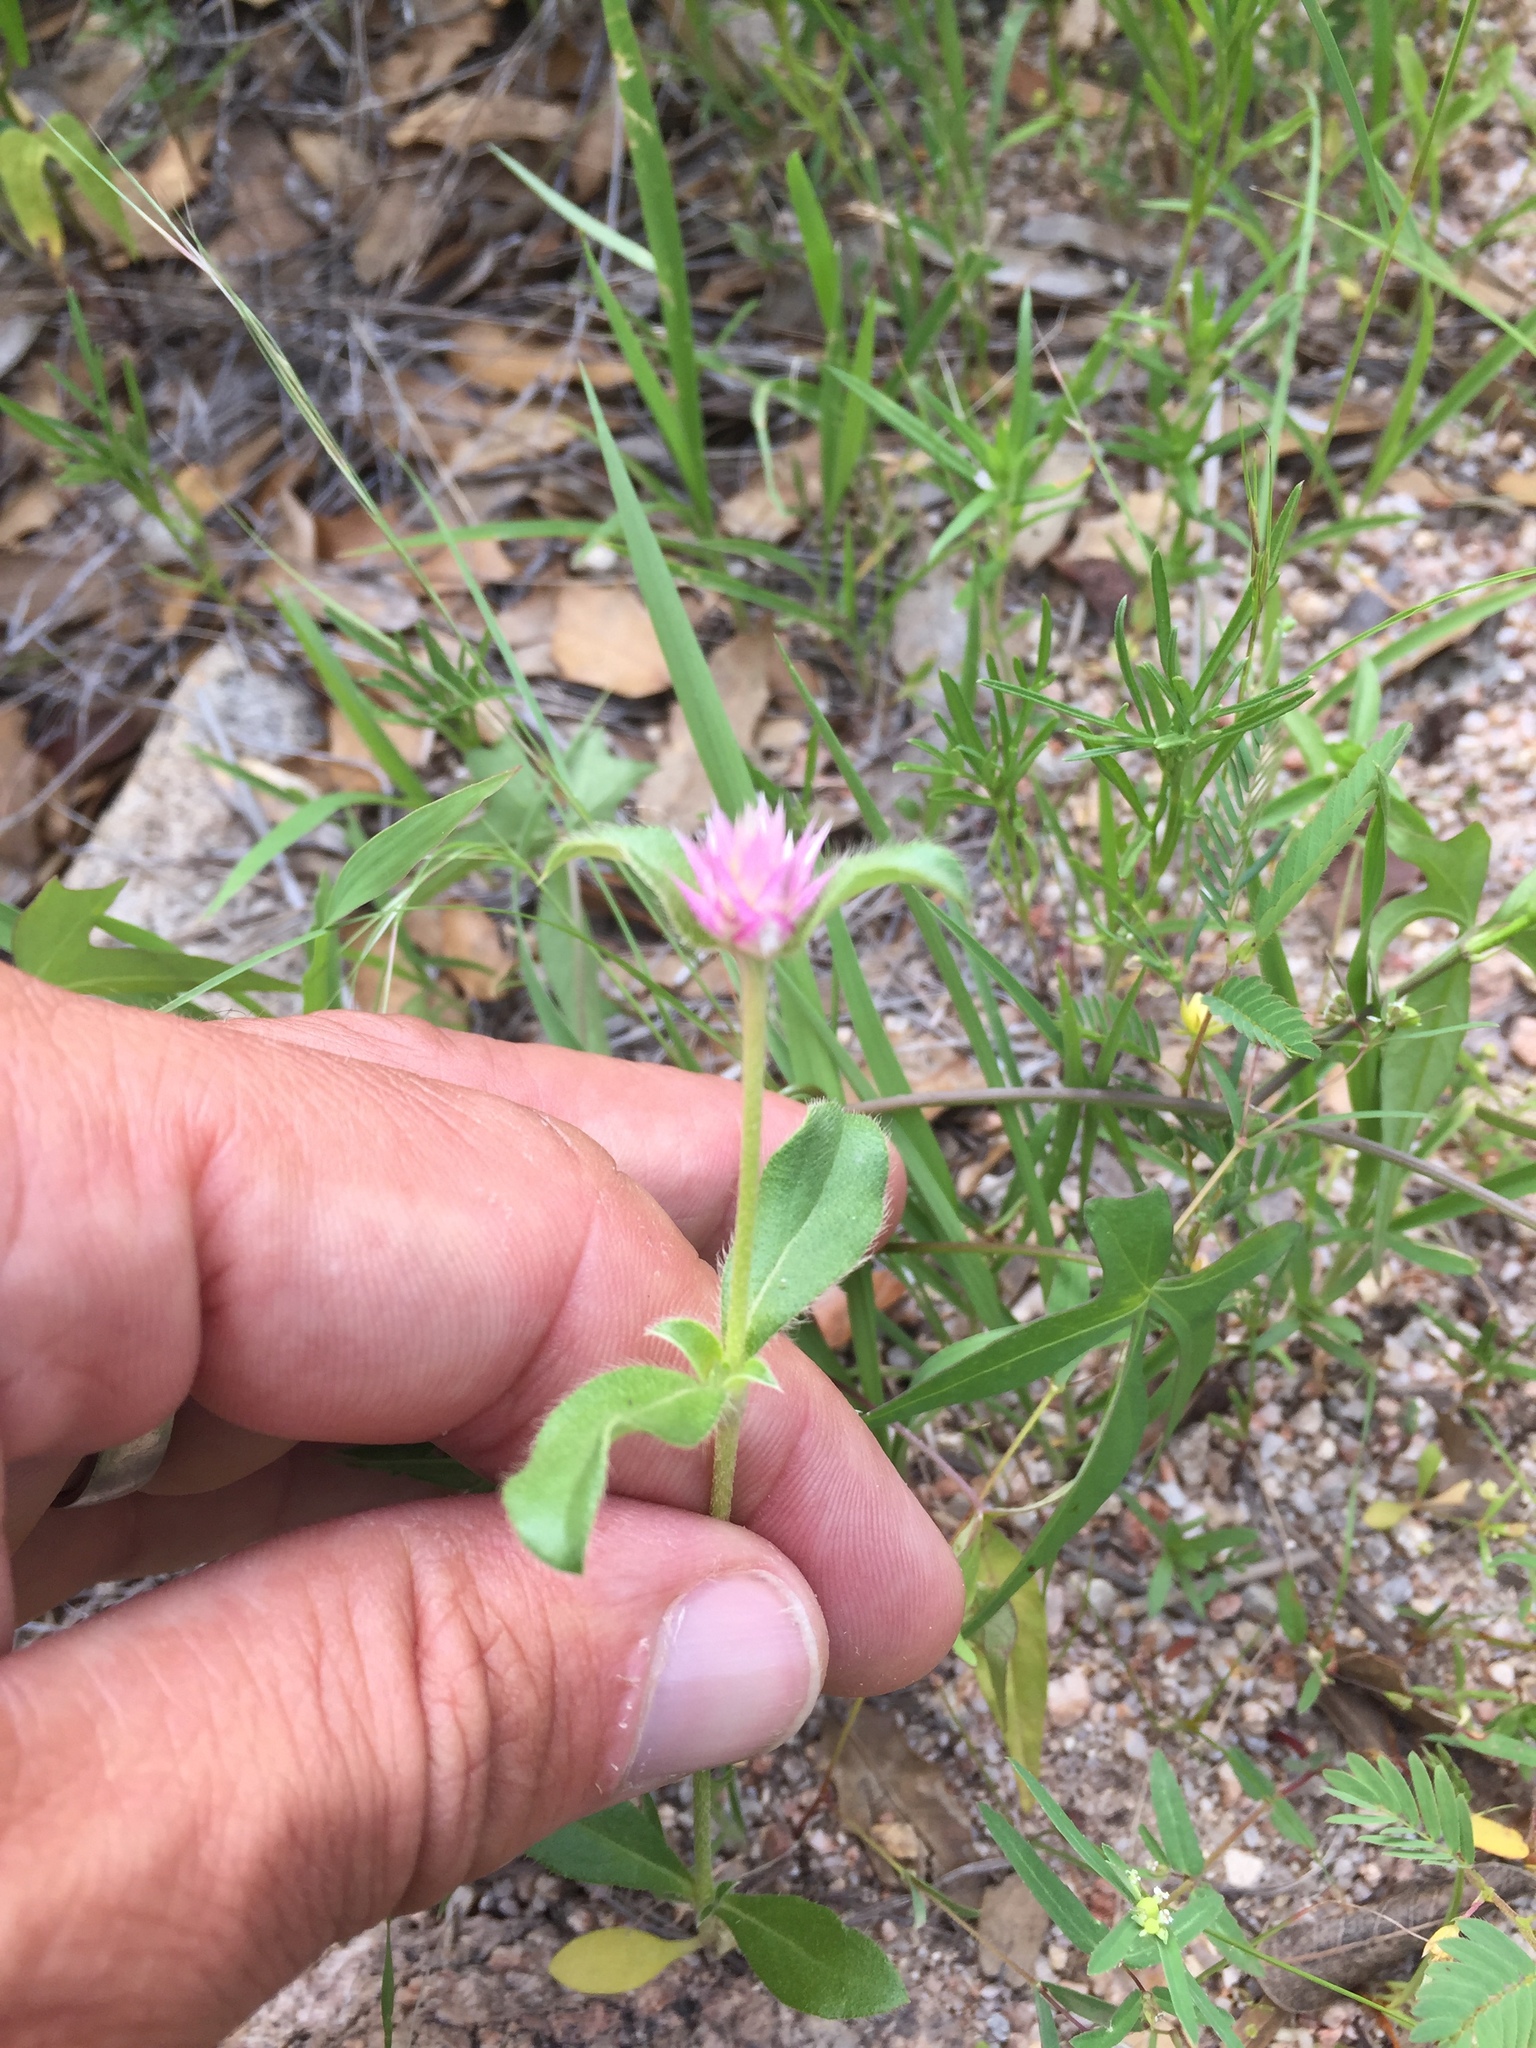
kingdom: Plantae
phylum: Tracheophyta
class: Magnoliopsida
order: Caryophyllales
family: Amaranthaceae
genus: Gomphrena
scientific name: Gomphrena nitida
